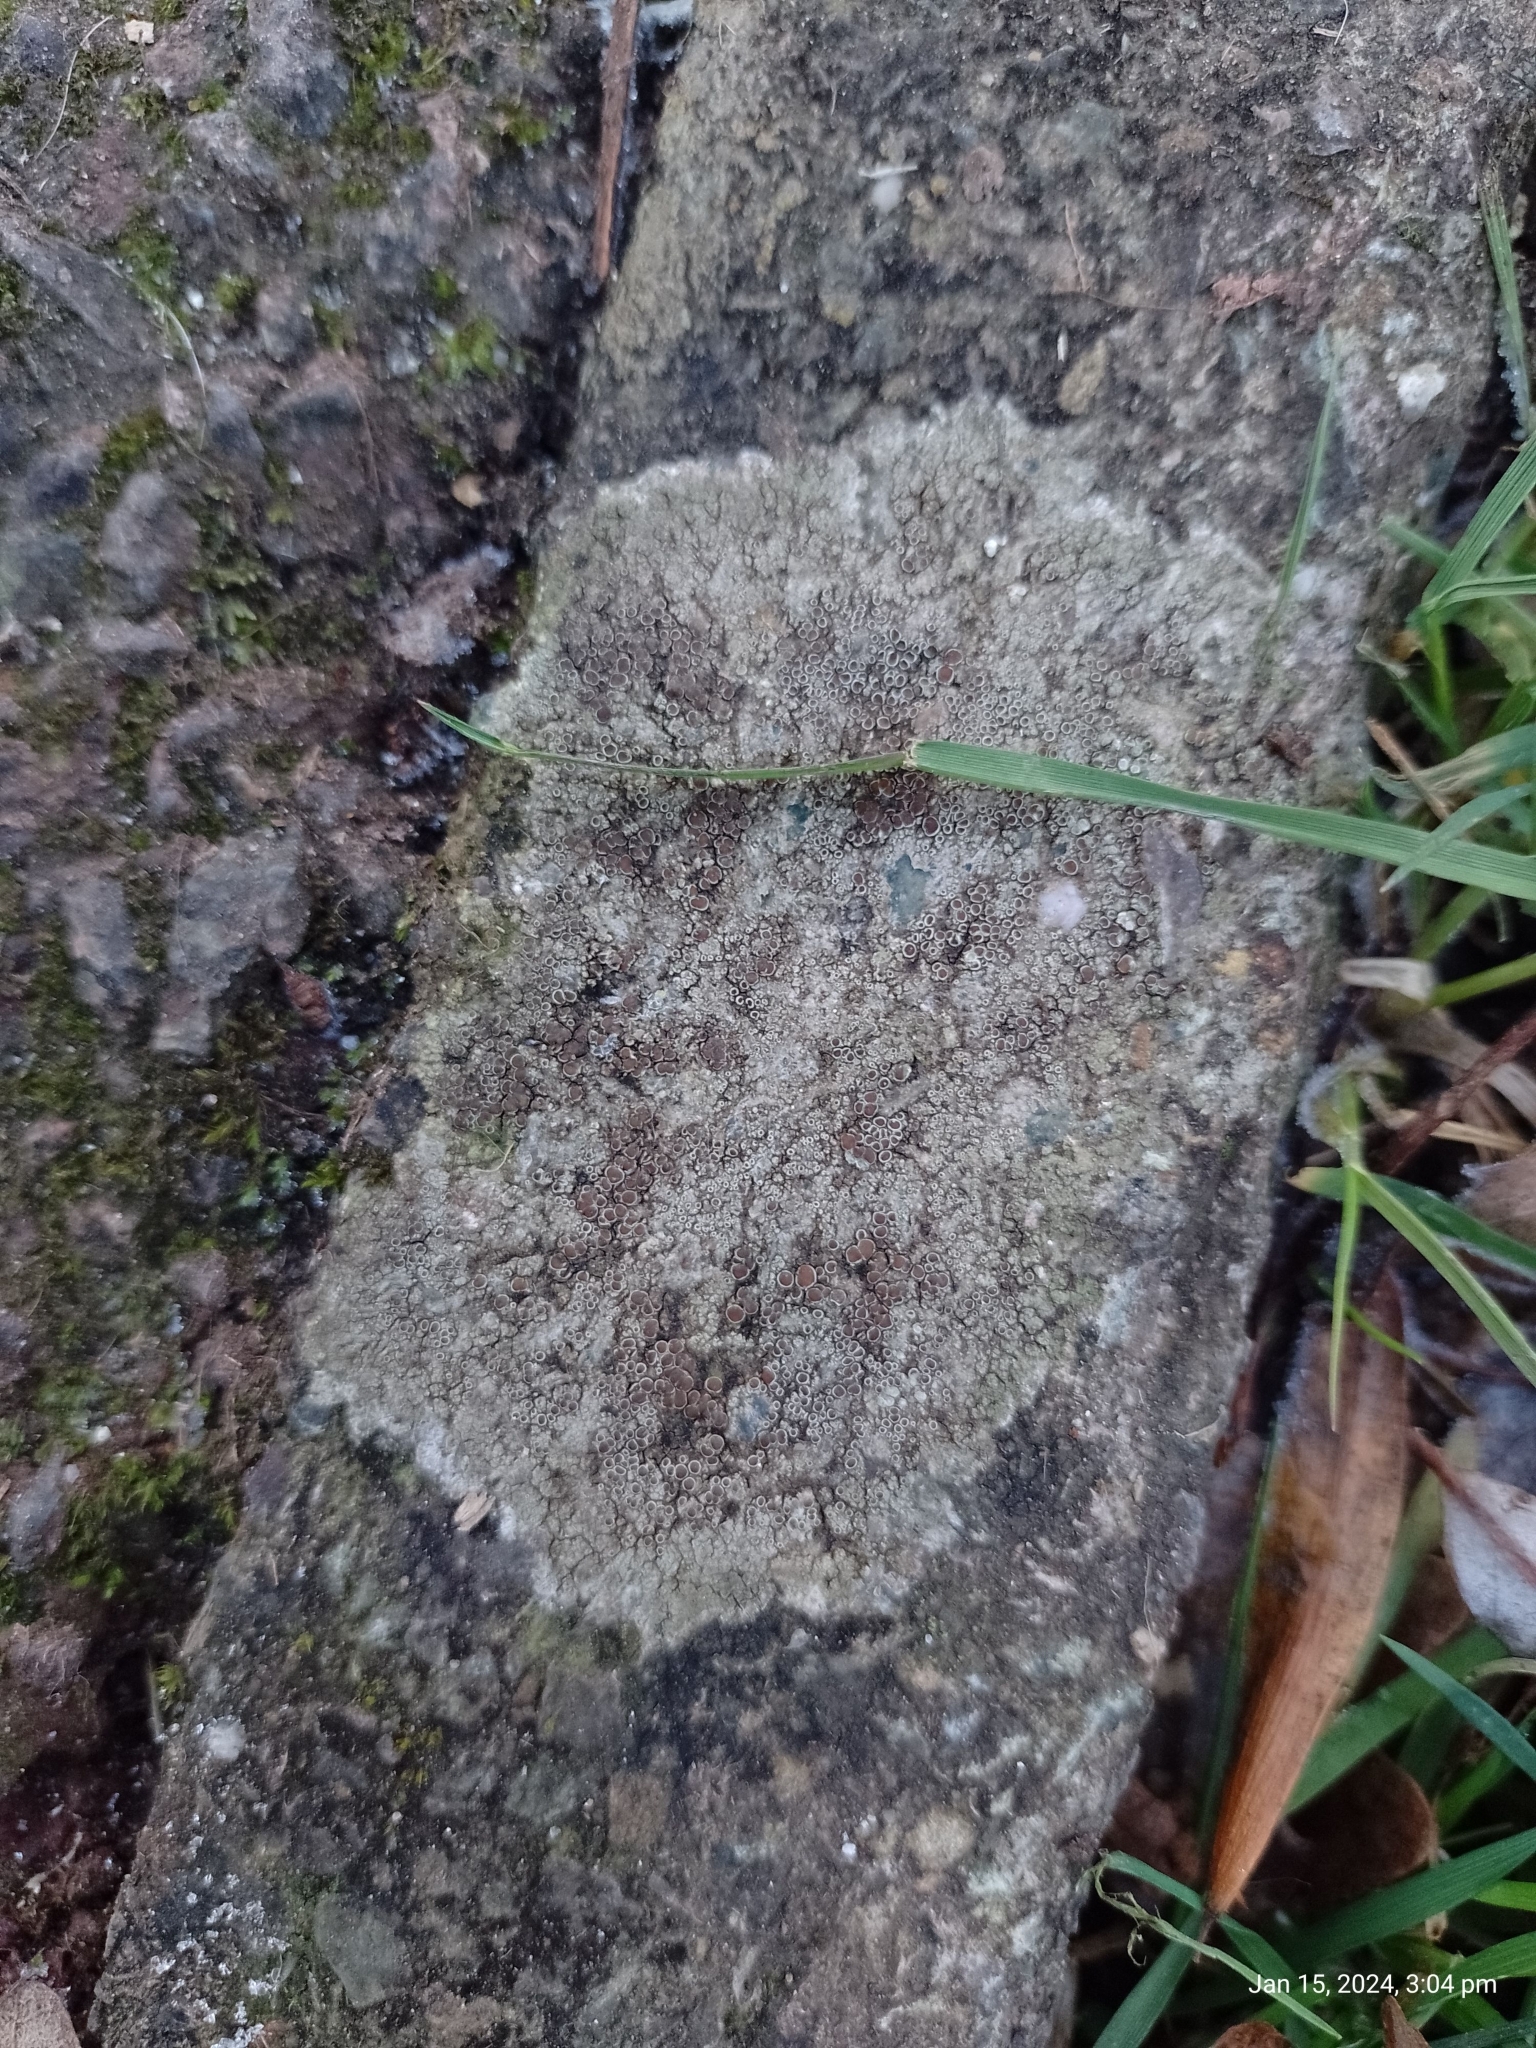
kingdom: Fungi
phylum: Ascomycota
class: Lecanoromycetes
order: Lecanorales
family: Lecanoraceae
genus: Lecanora
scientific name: Lecanora campestris
